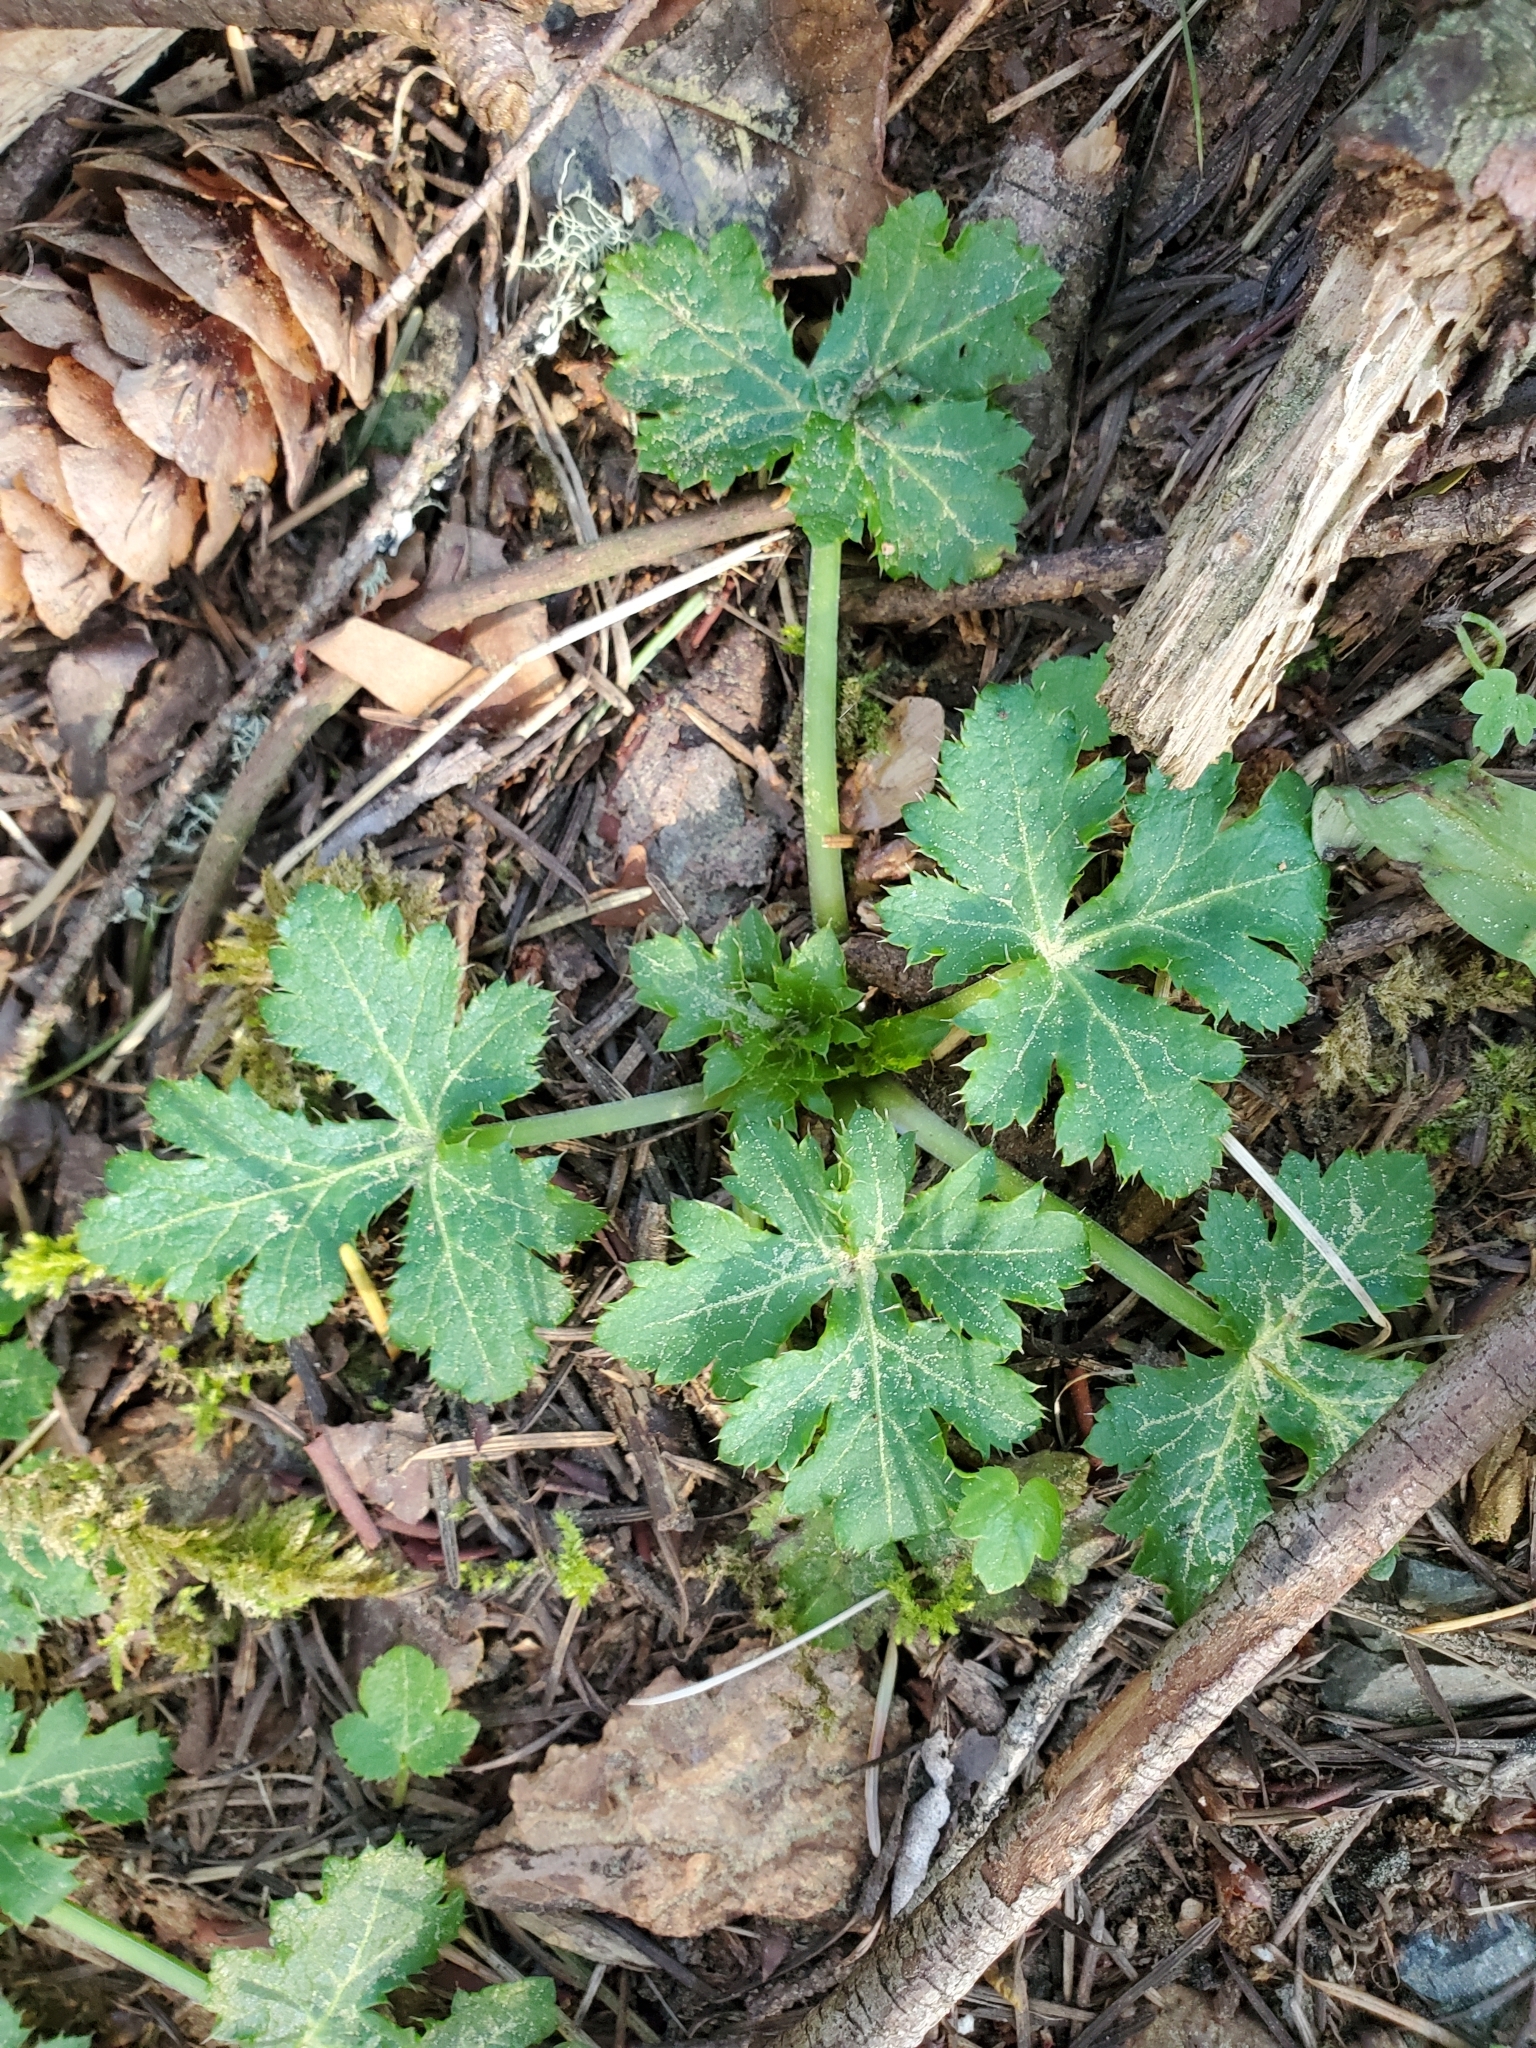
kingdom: Plantae
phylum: Tracheophyta
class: Magnoliopsida
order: Apiales
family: Apiaceae
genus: Sanicula
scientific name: Sanicula crassicaulis
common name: Western snakeroot
